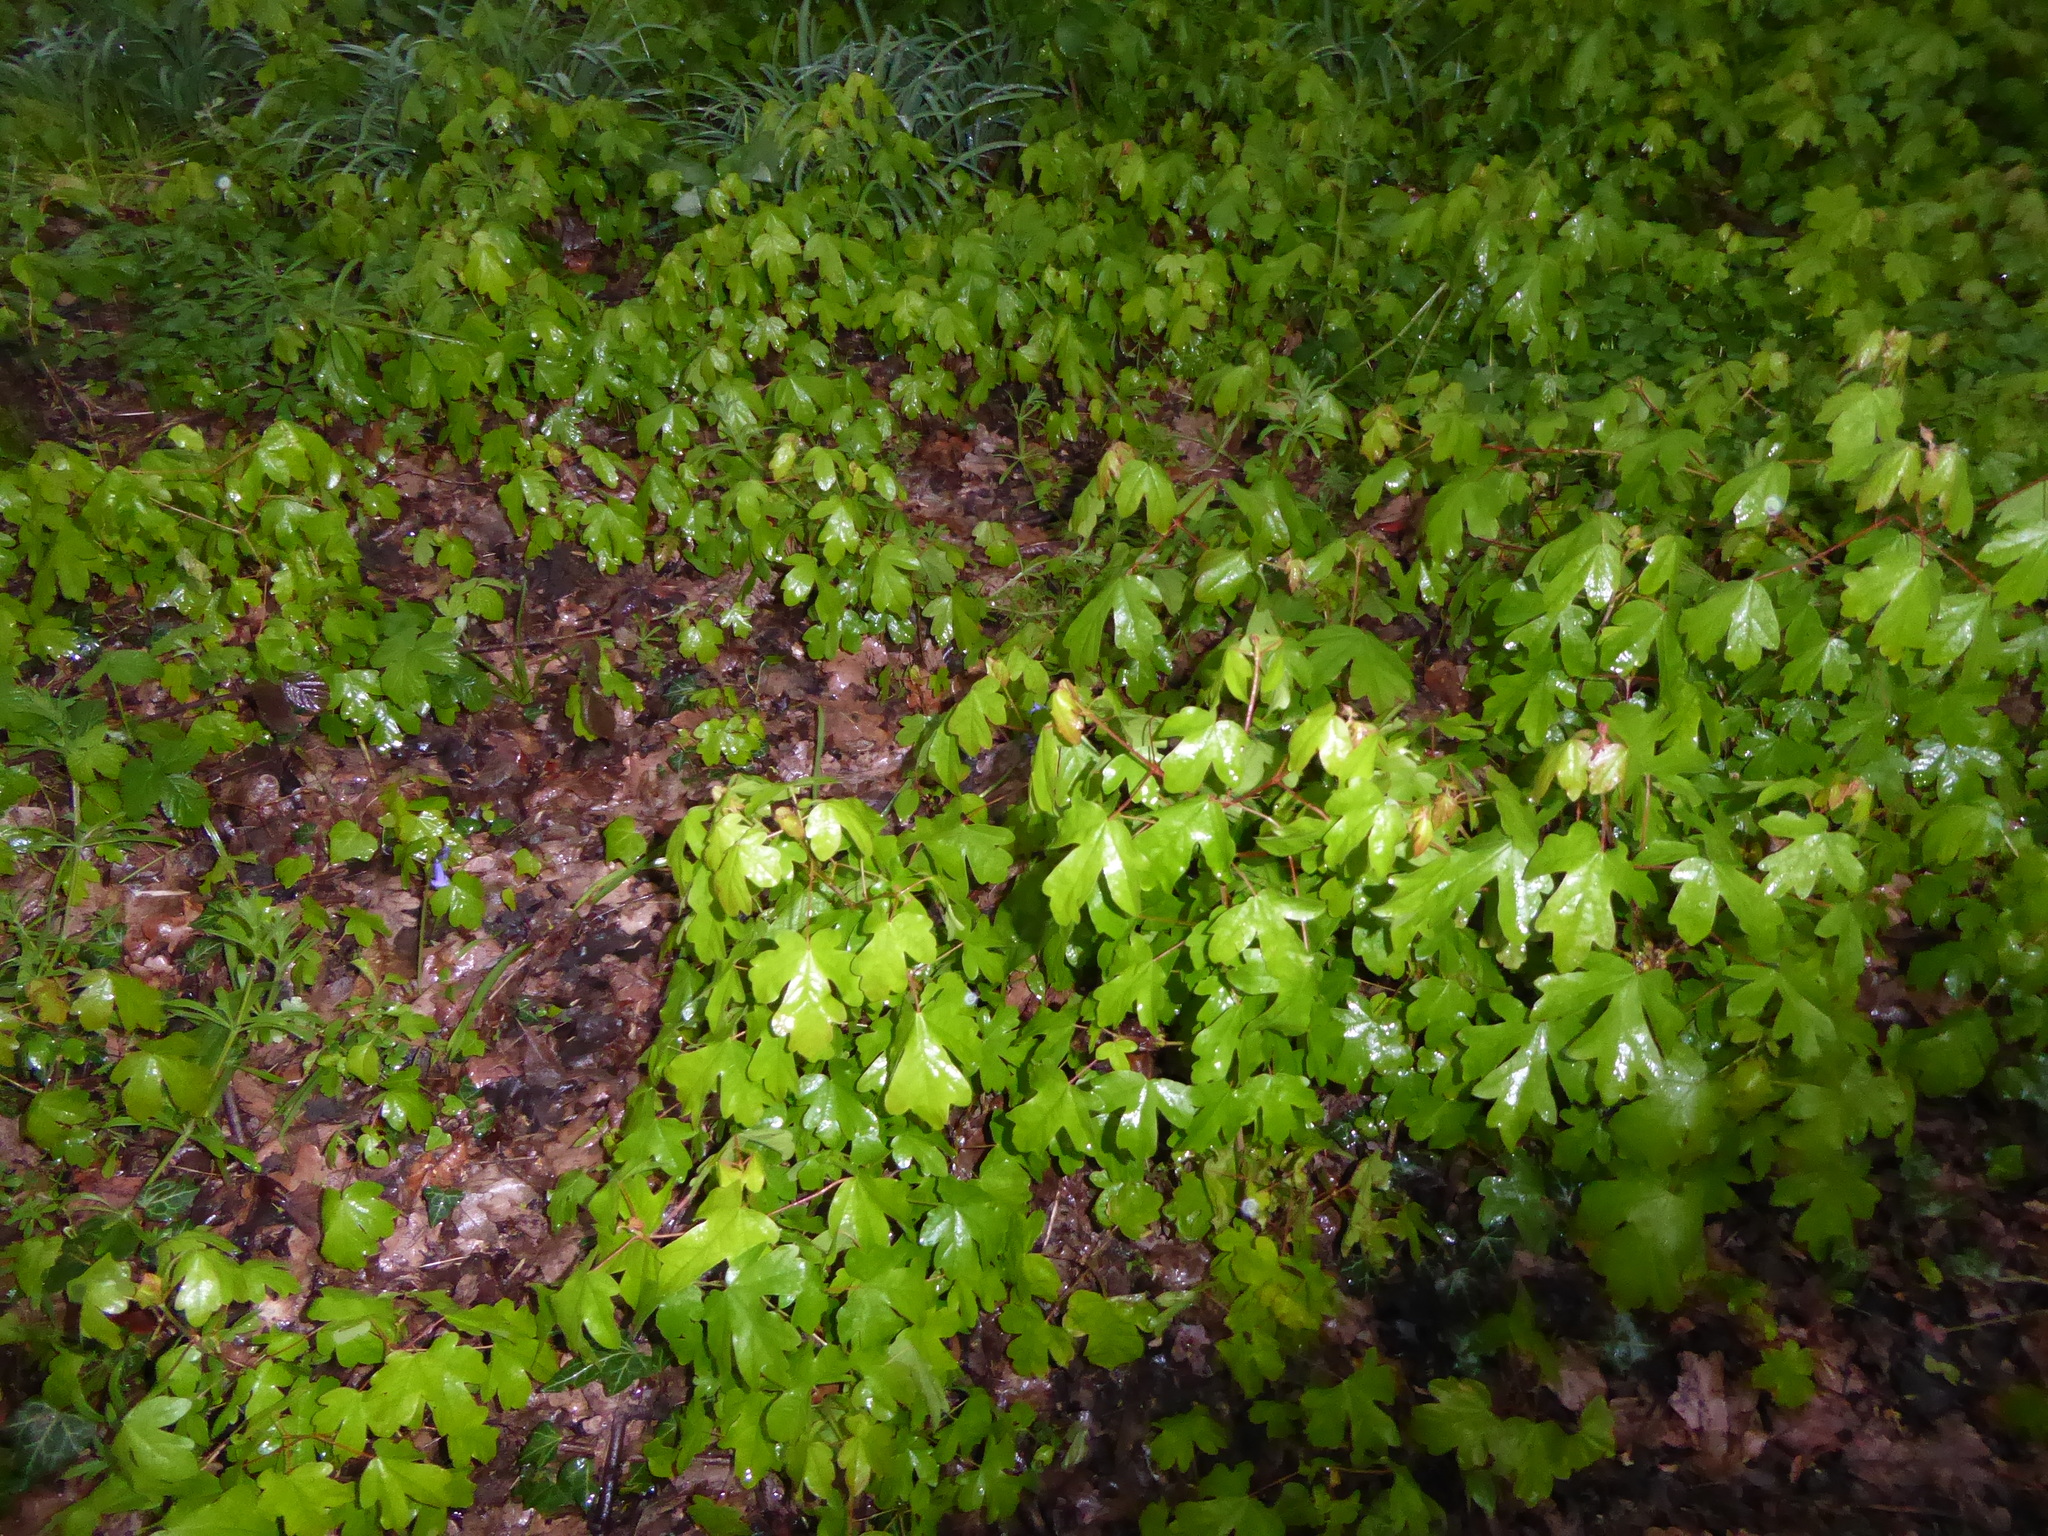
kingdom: Plantae
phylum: Tracheophyta
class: Magnoliopsida
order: Sapindales
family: Sapindaceae
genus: Acer
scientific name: Acer campestre
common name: Field maple
